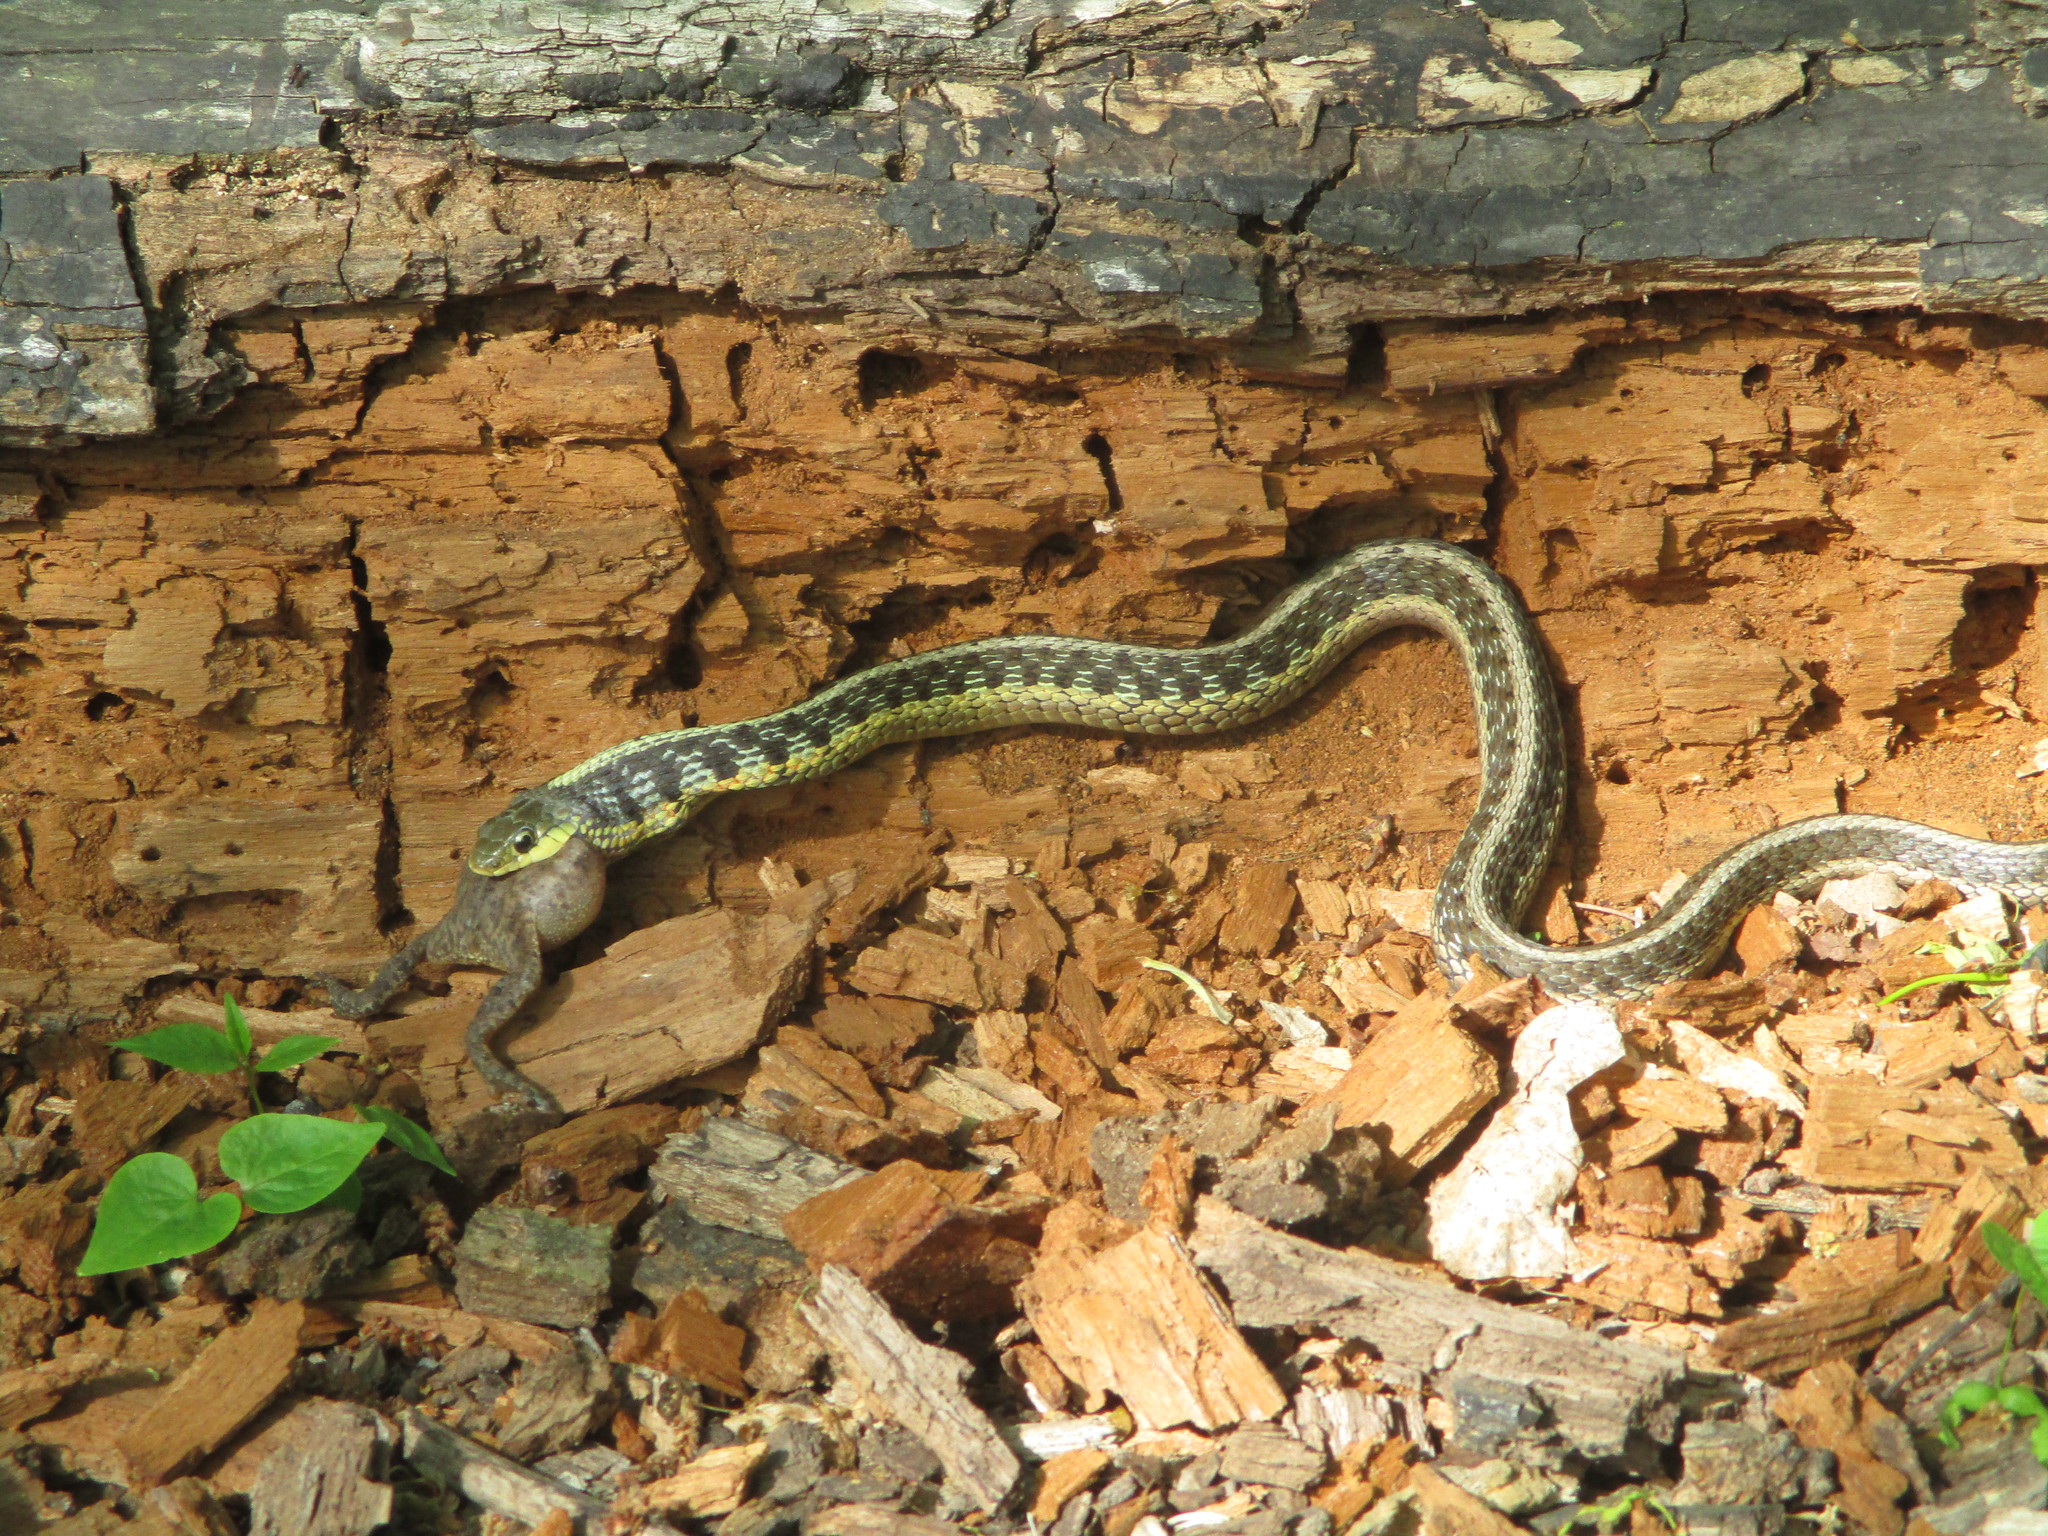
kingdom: Animalia
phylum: Chordata
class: Squamata
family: Colubridae
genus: Thamnophis
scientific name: Thamnophis sirtalis
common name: Common garter snake
